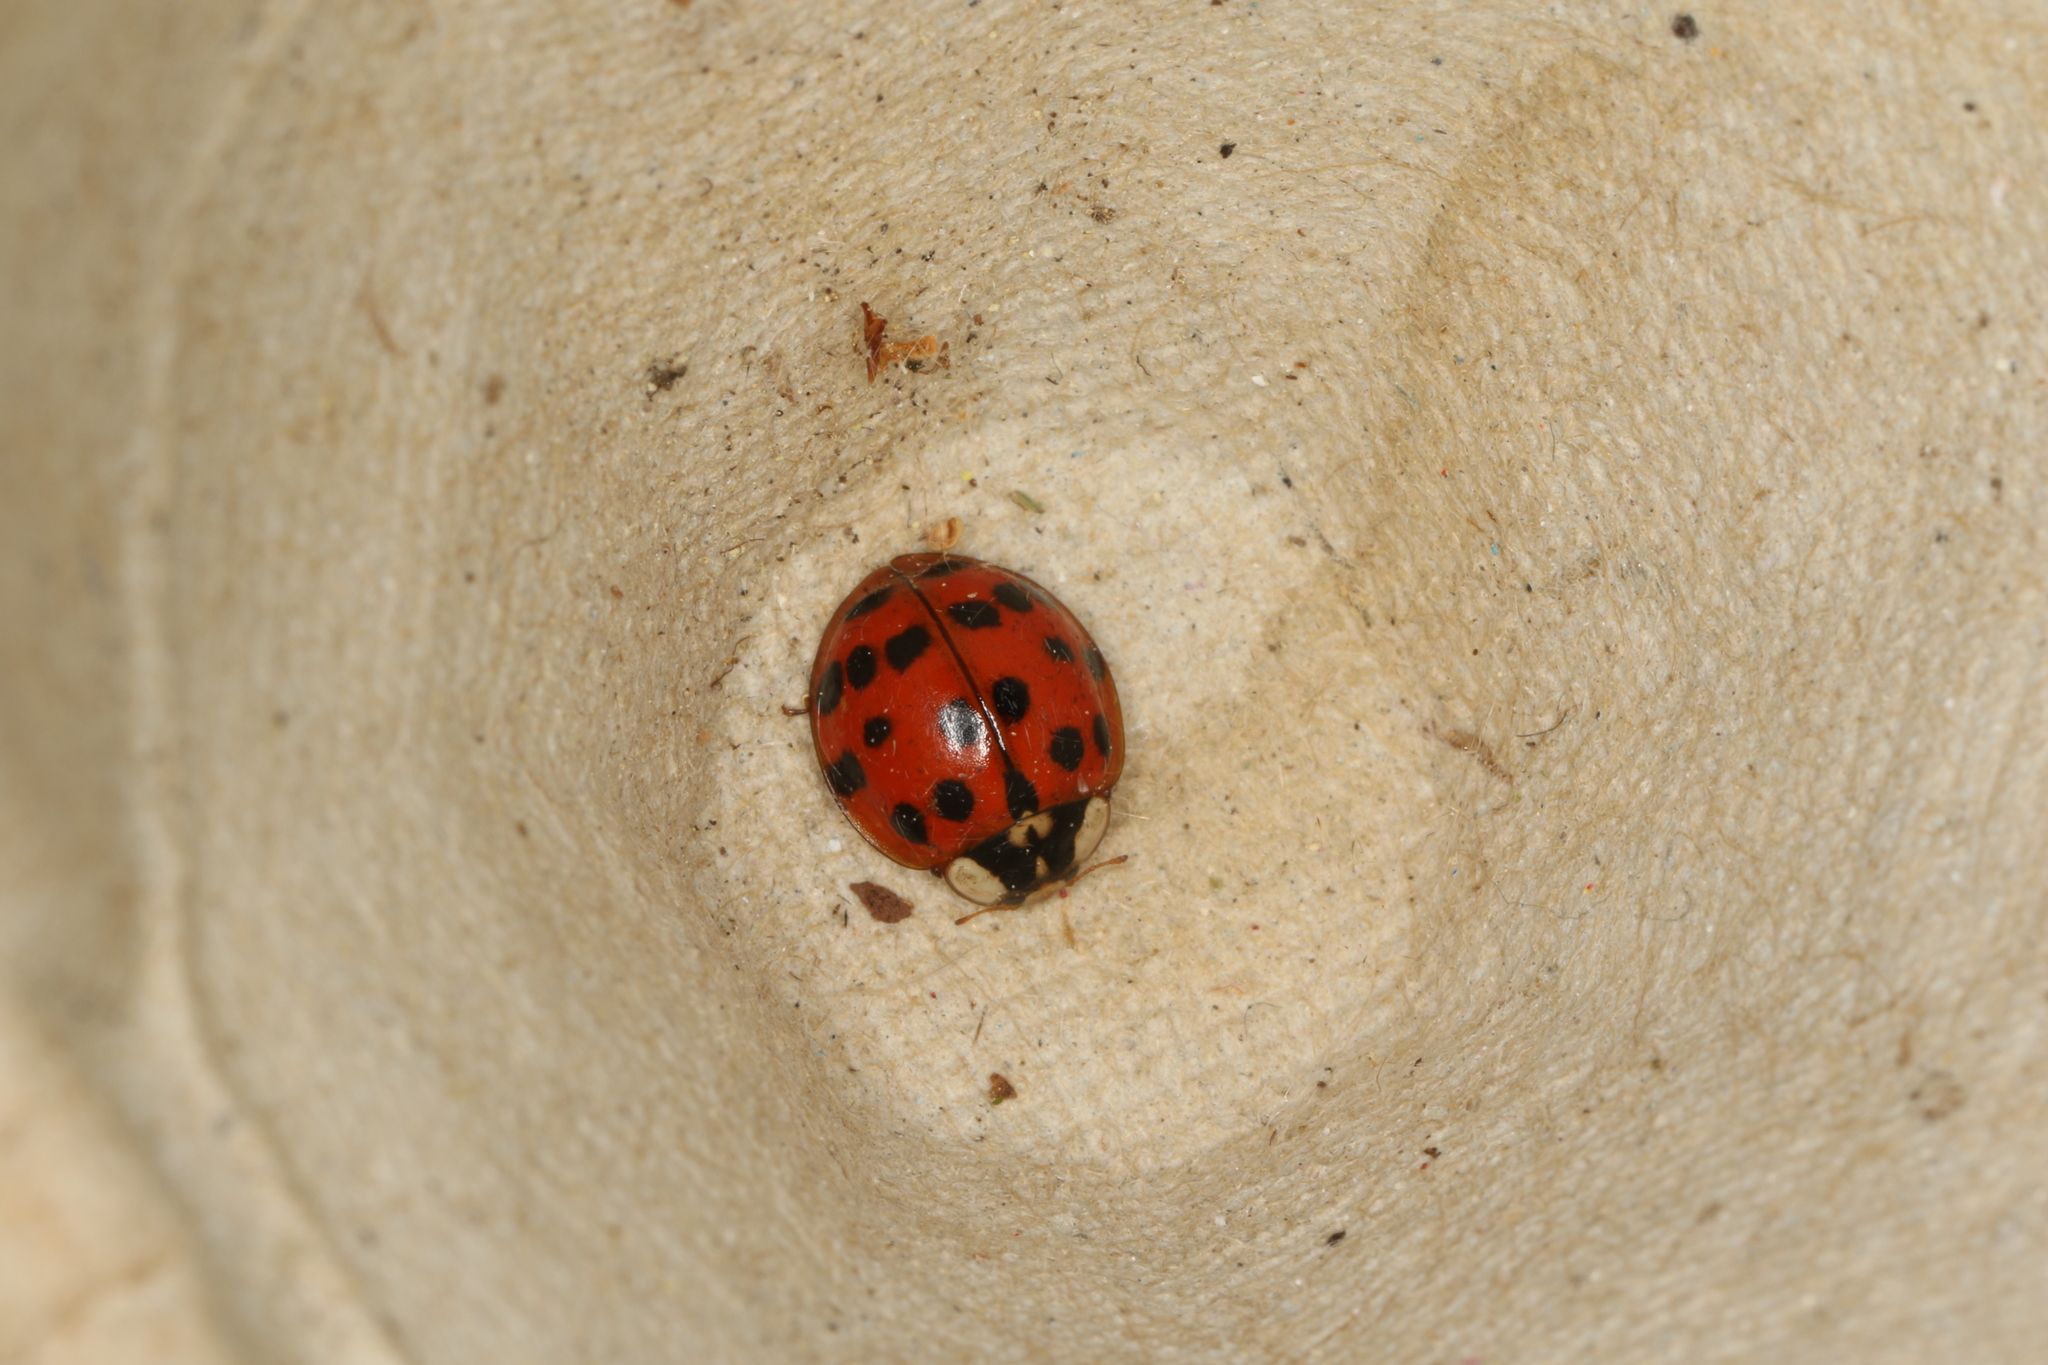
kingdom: Animalia
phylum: Arthropoda
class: Insecta
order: Coleoptera
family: Coccinellidae
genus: Harmonia
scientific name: Harmonia axyridis
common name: Harlequin ladybird
